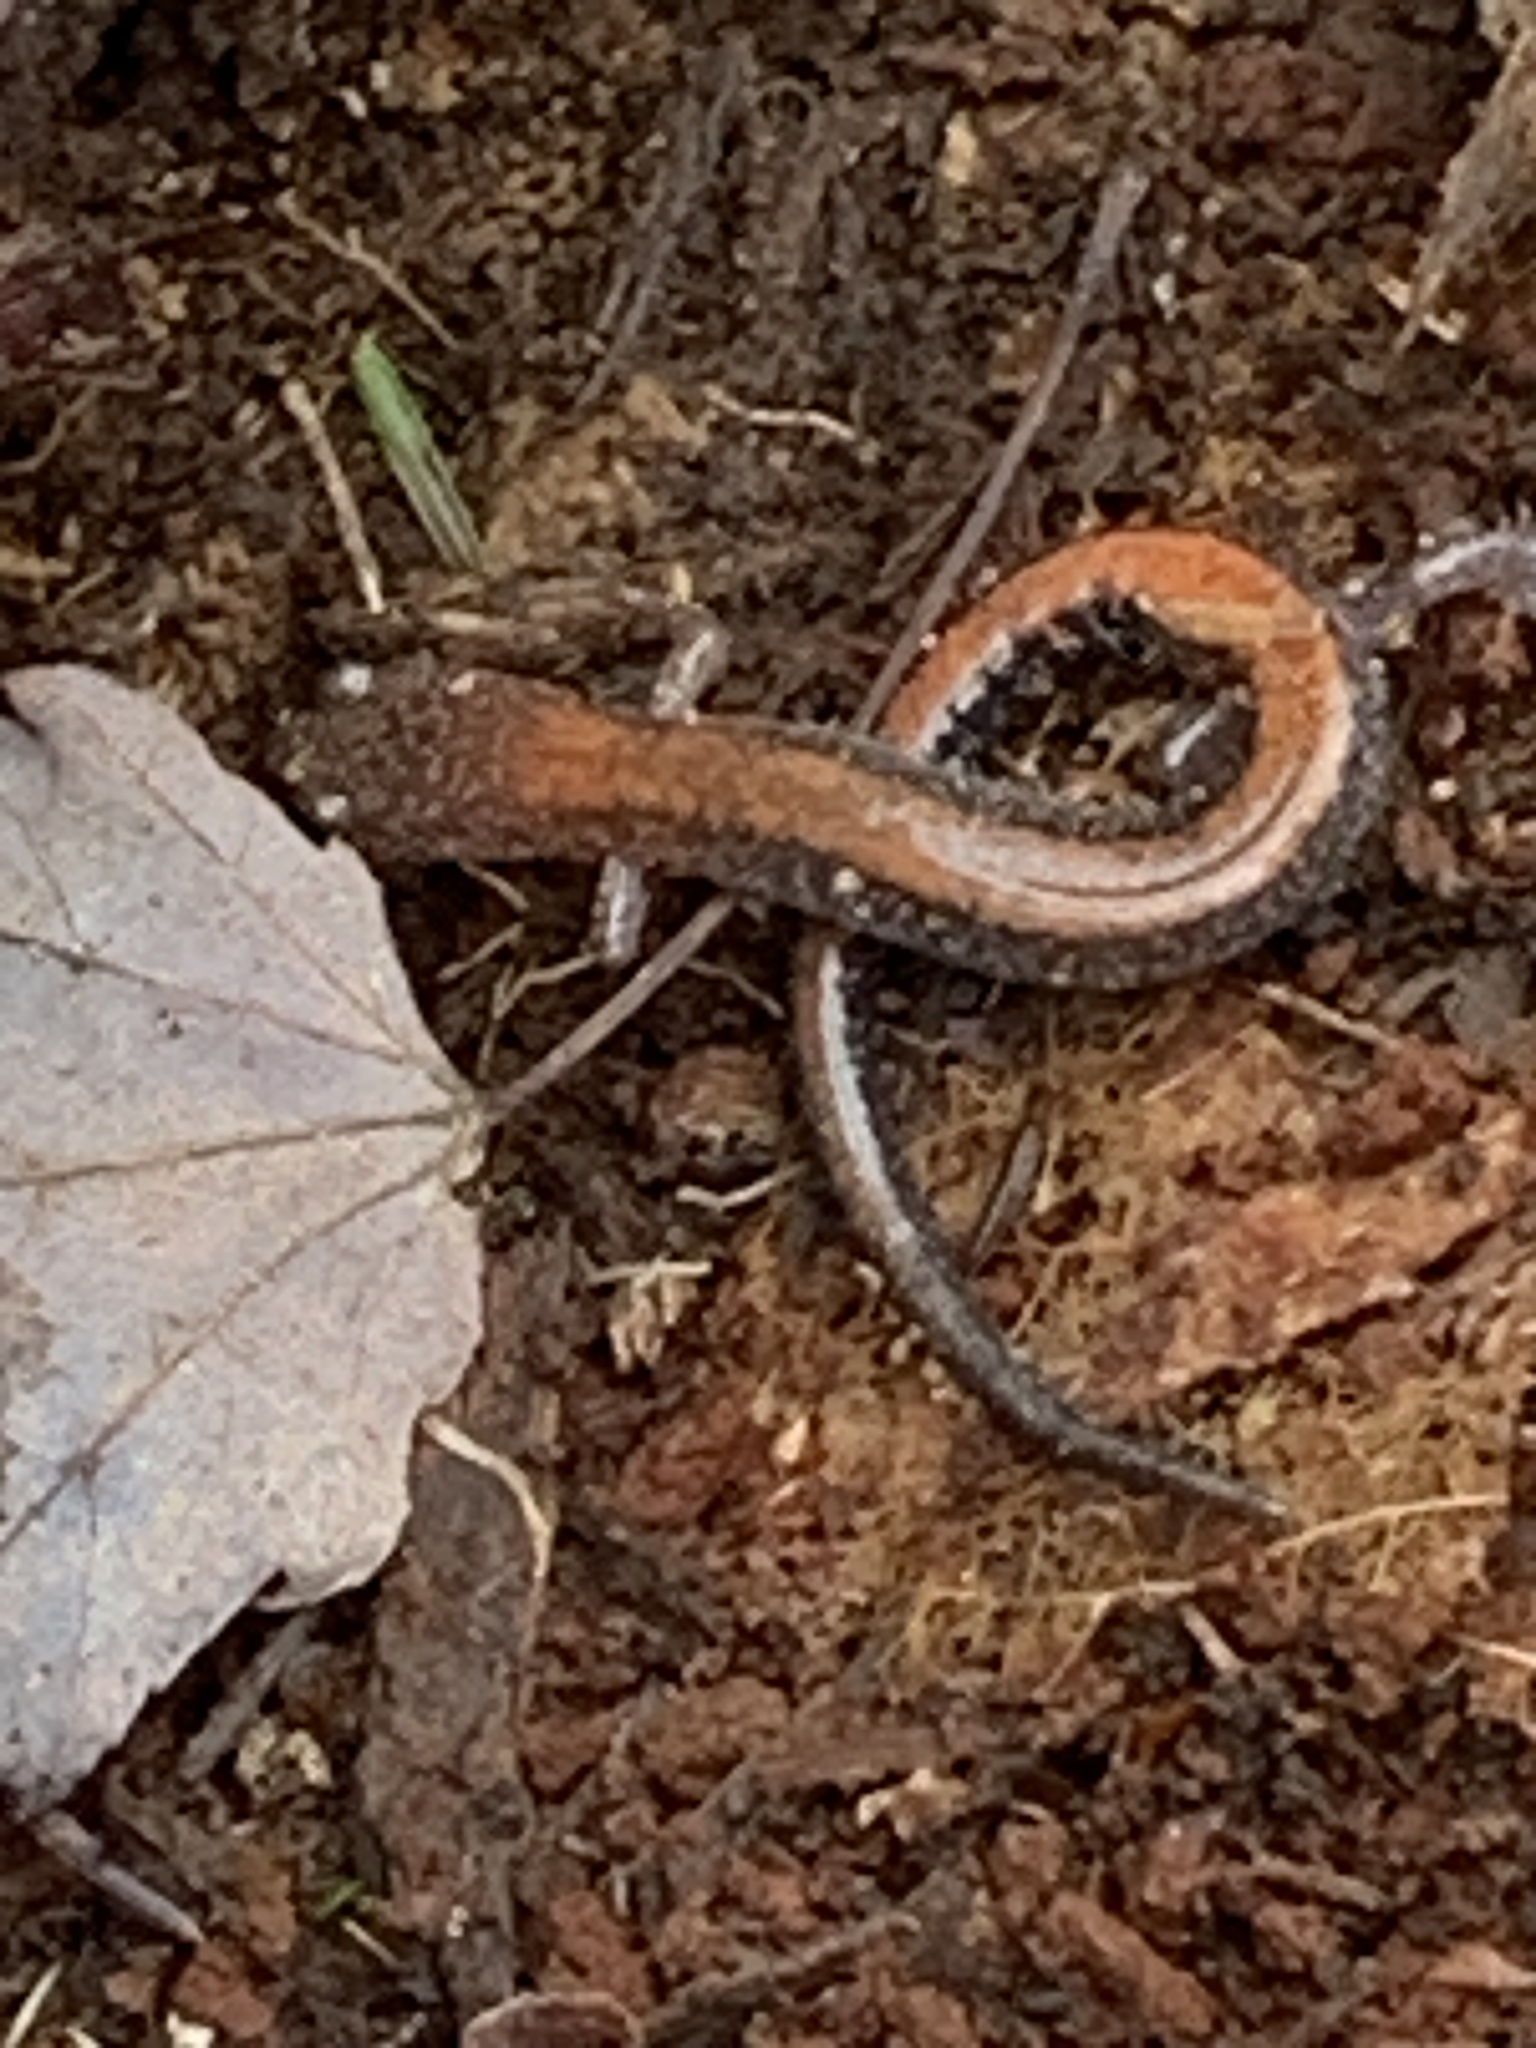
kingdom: Animalia
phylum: Chordata
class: Amphibia
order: Caudata
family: Plethodontidae
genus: Plethodon
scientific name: Plethodon cinereus
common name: Redback salamander
